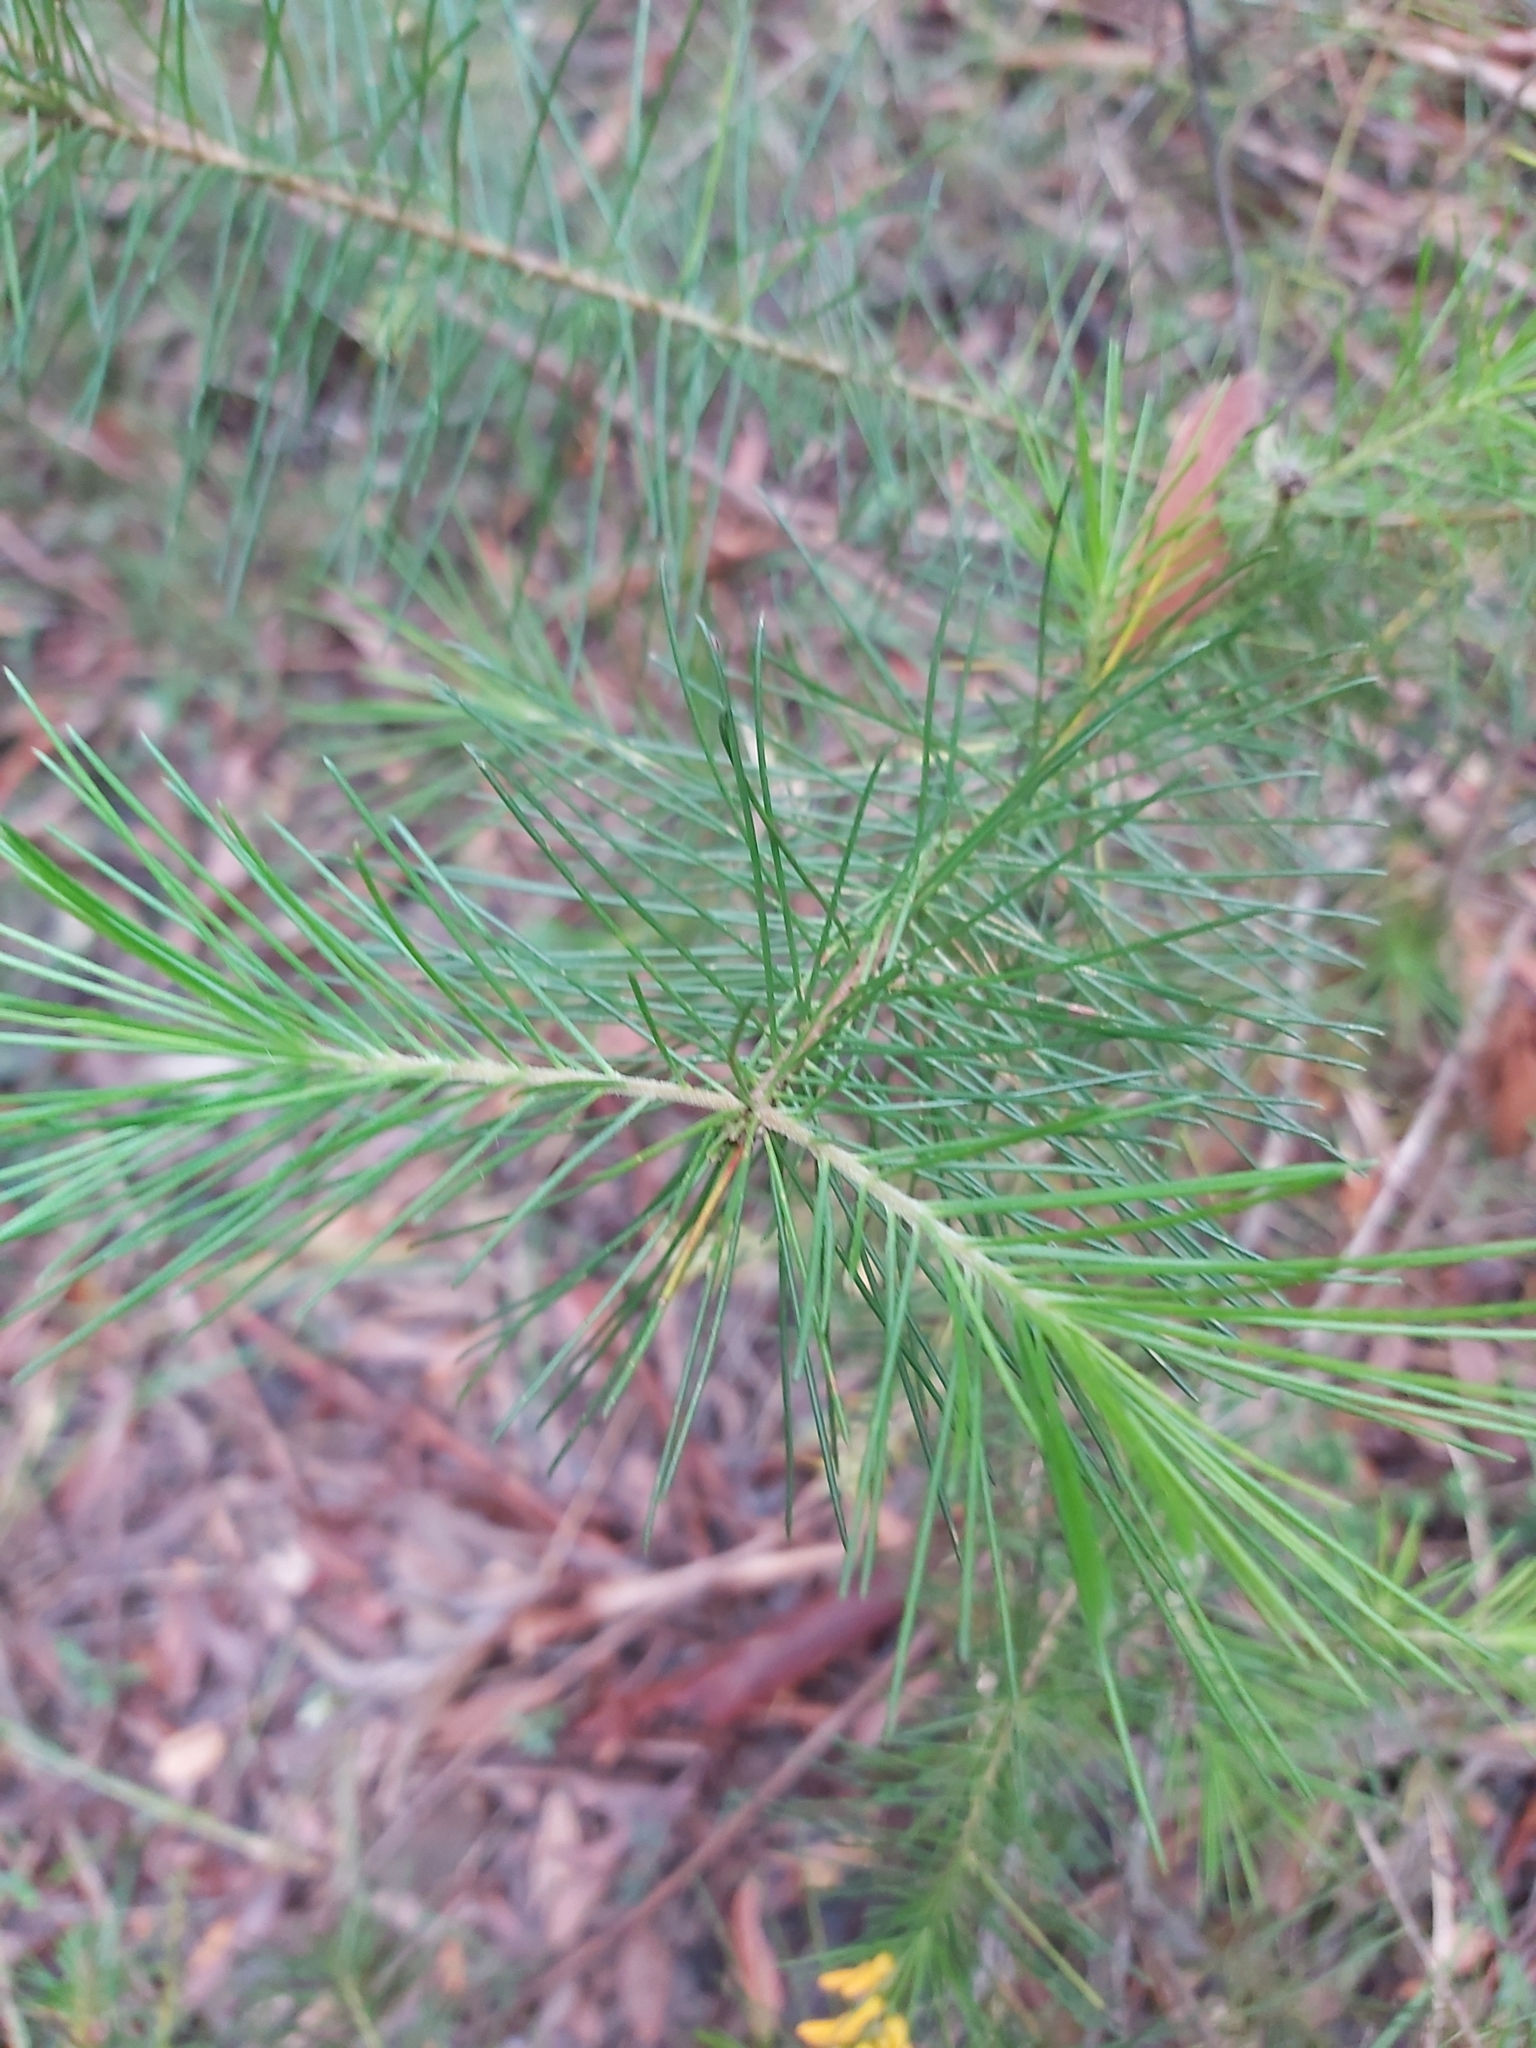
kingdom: Plantae
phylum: Tracheophyta
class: Magnoliopsida
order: Proteales
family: Proteaceae
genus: Persoonia
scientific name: Persoonia pinifolia
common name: Pine-leaf geebung
